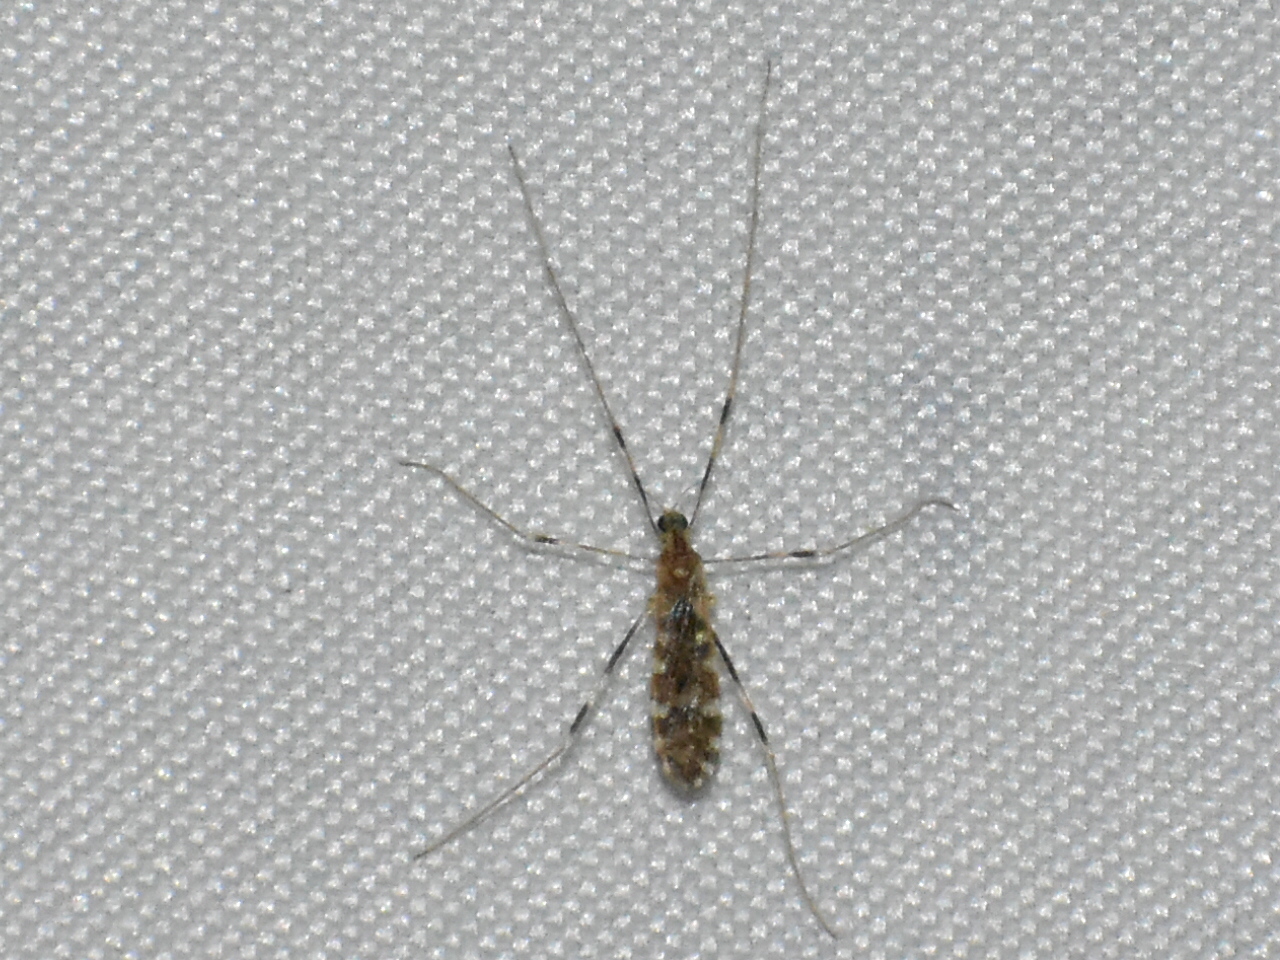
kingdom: Animalia
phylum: Arthropoda
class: Insecta
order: Diptera
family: Limoniidae
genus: Erioptera
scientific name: Erioptera caliptera
